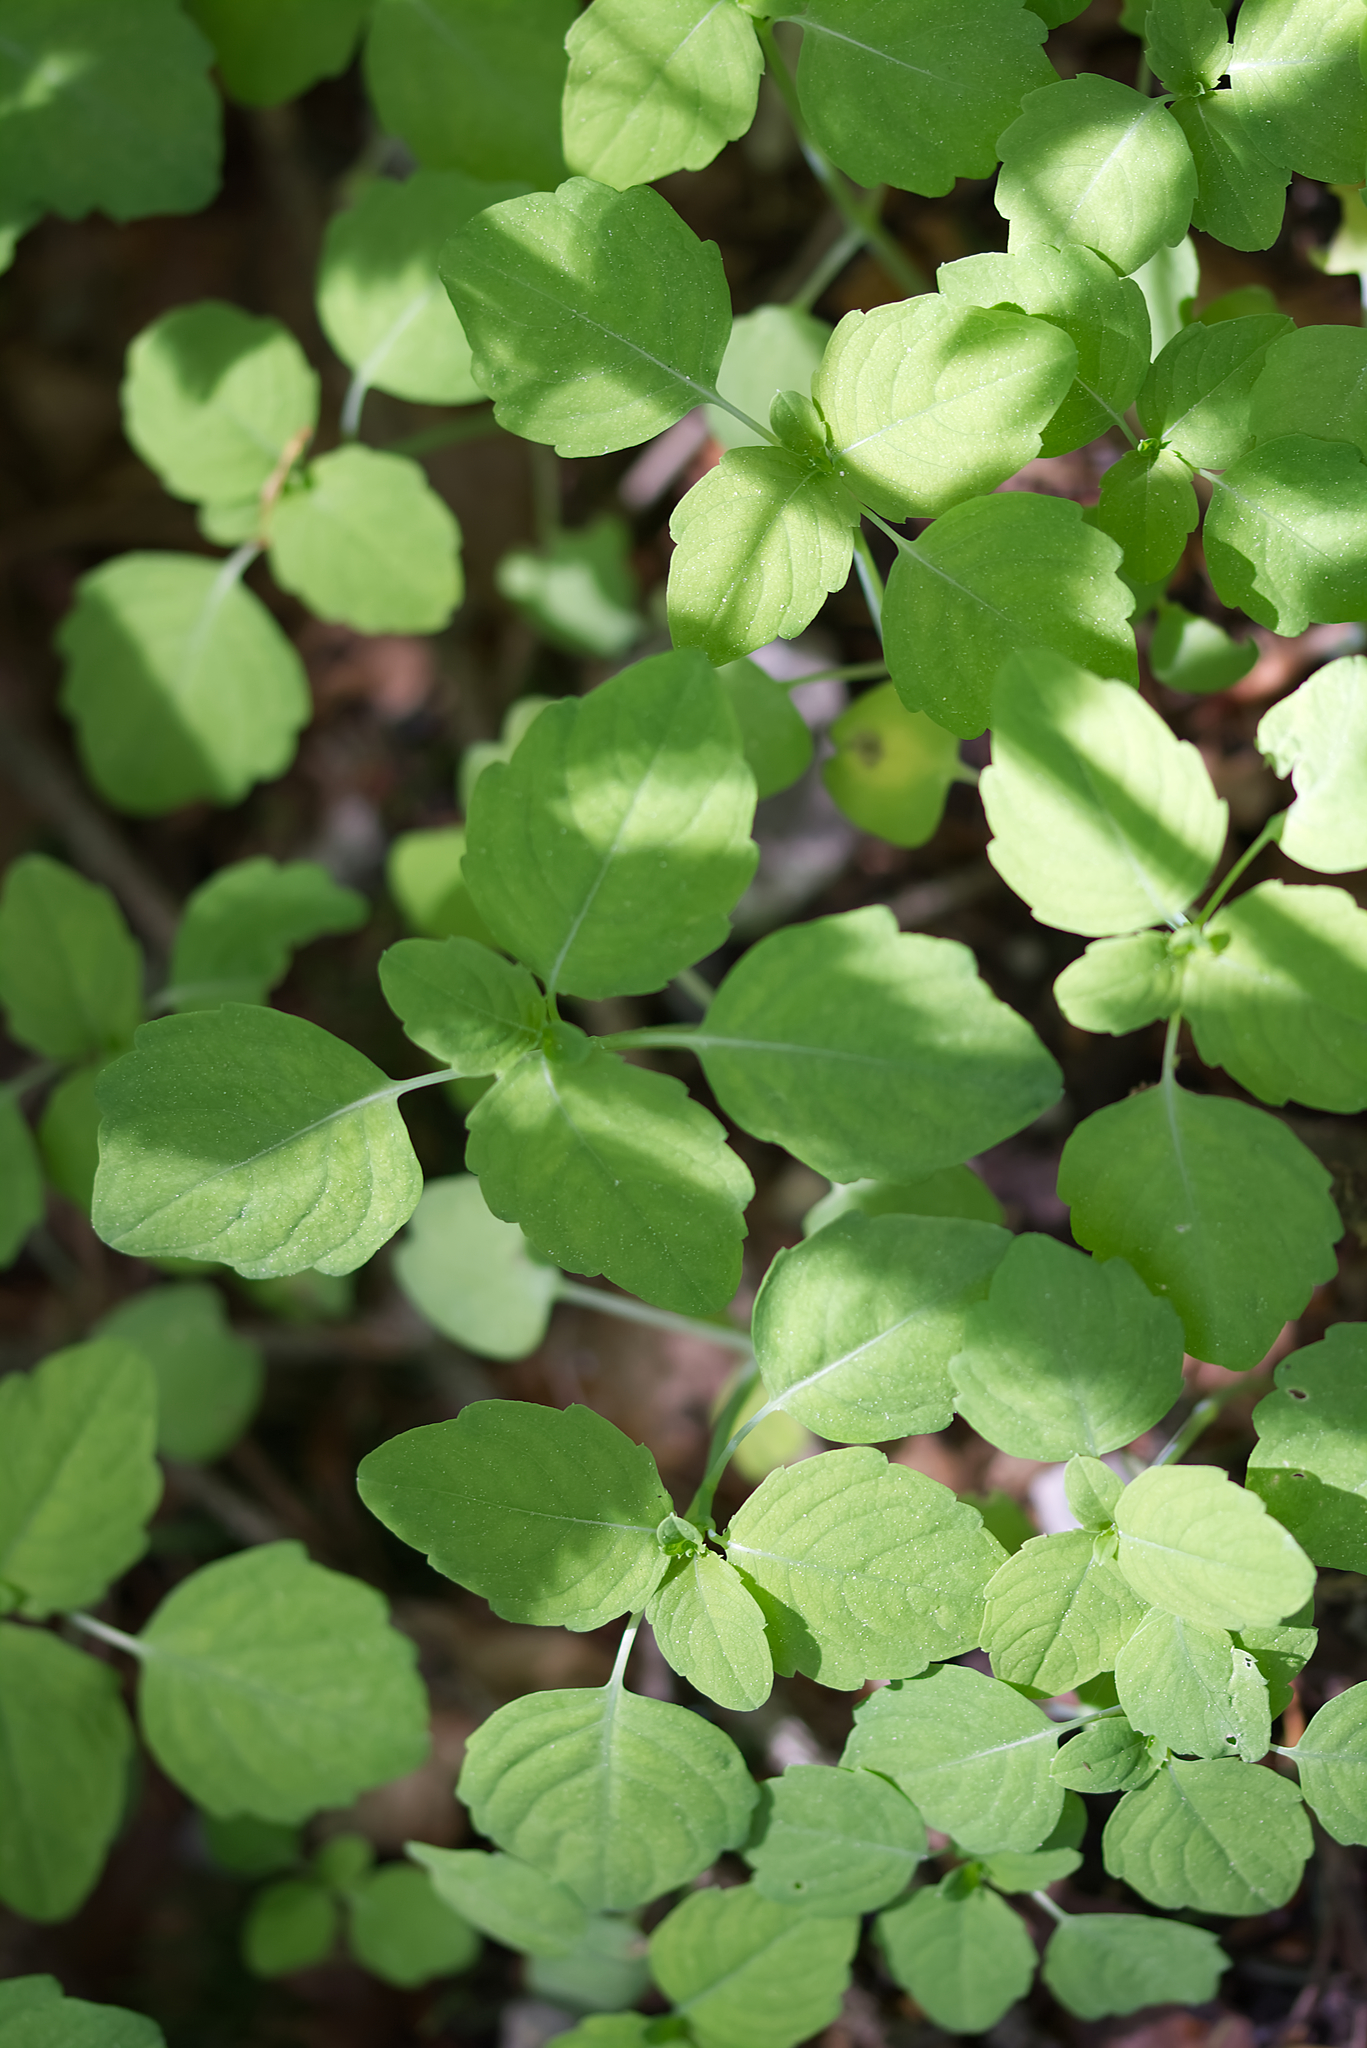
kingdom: Plantae
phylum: Tracheophyta
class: Magnoliopsida
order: Ericales
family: Balsaminaceae
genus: Impatiens
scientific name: Impatiens noli-tangere
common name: Touch-me-not balsam
